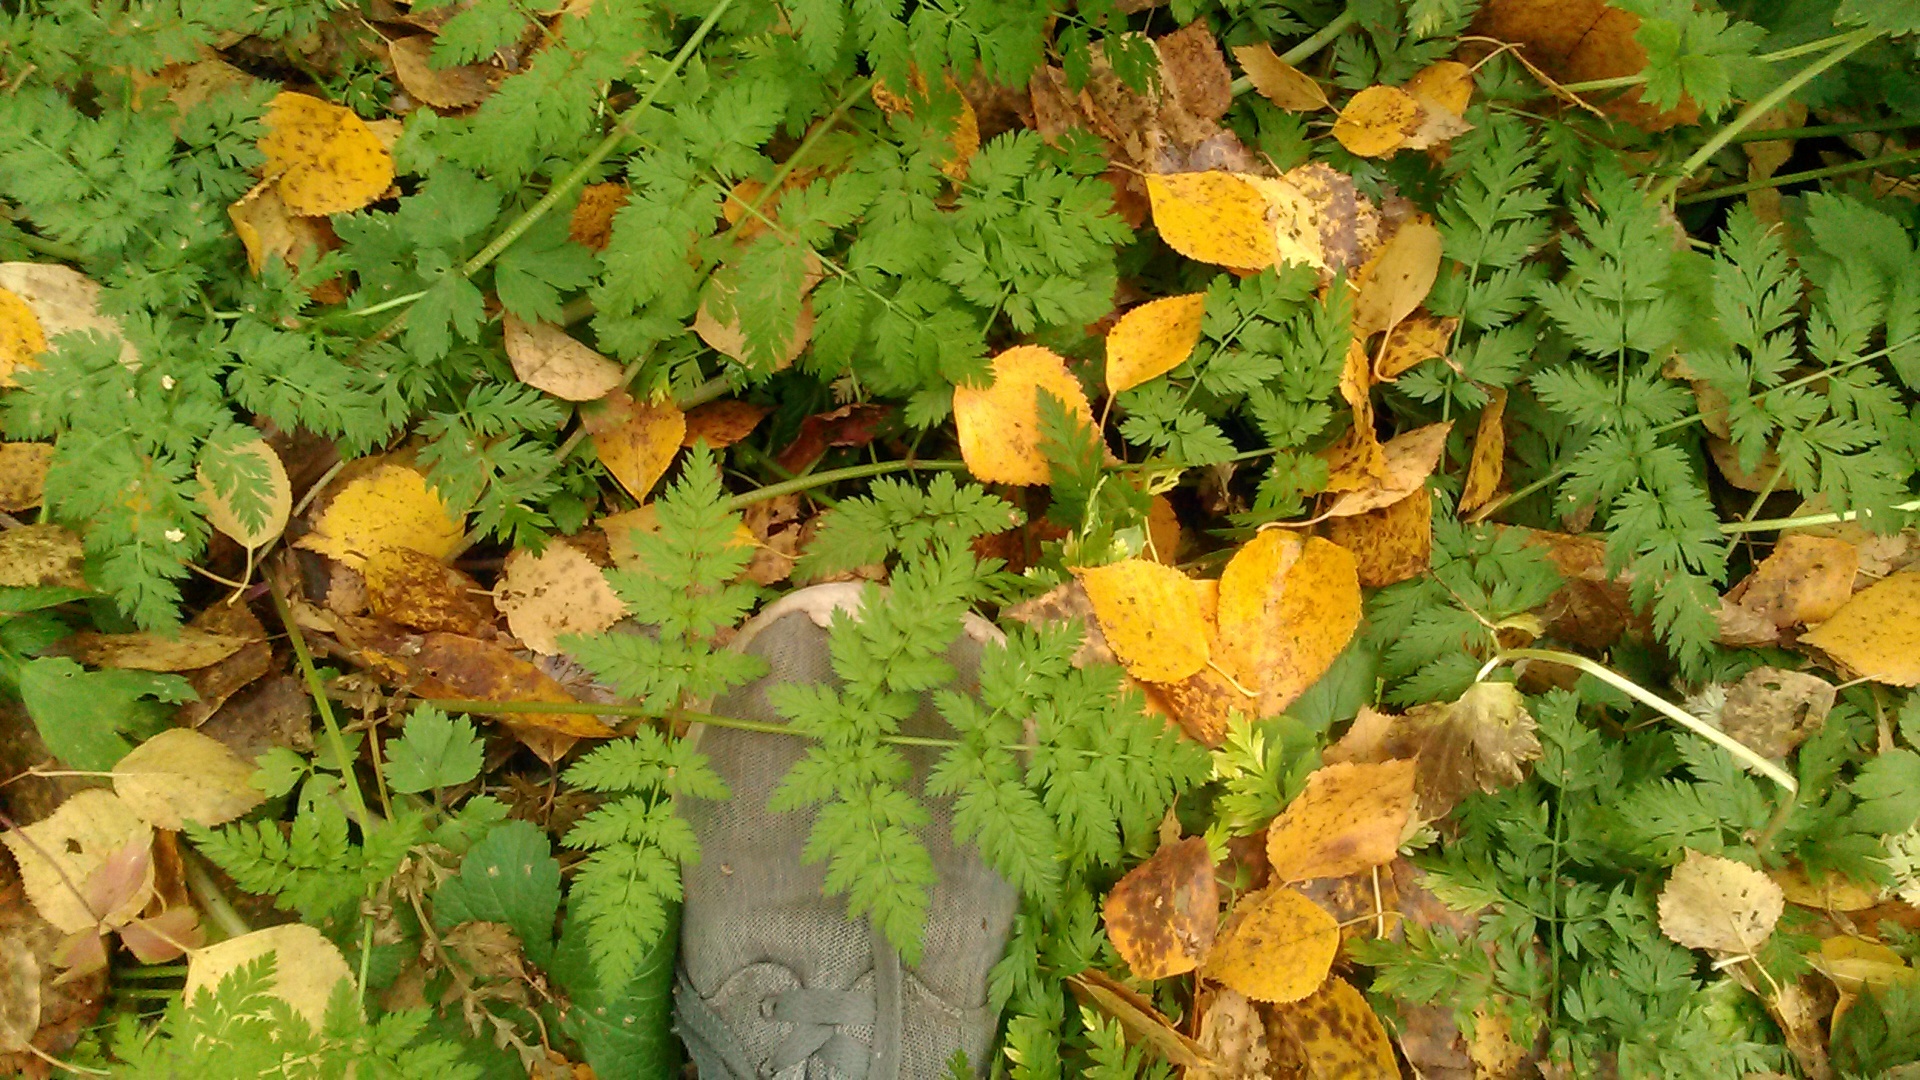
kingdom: Plantae
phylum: Tracheophyta
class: Magnoliopsida
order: Apiales
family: Apiaceae
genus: Anthriscus
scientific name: Anthriscus sylvestris
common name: Cow parsley
